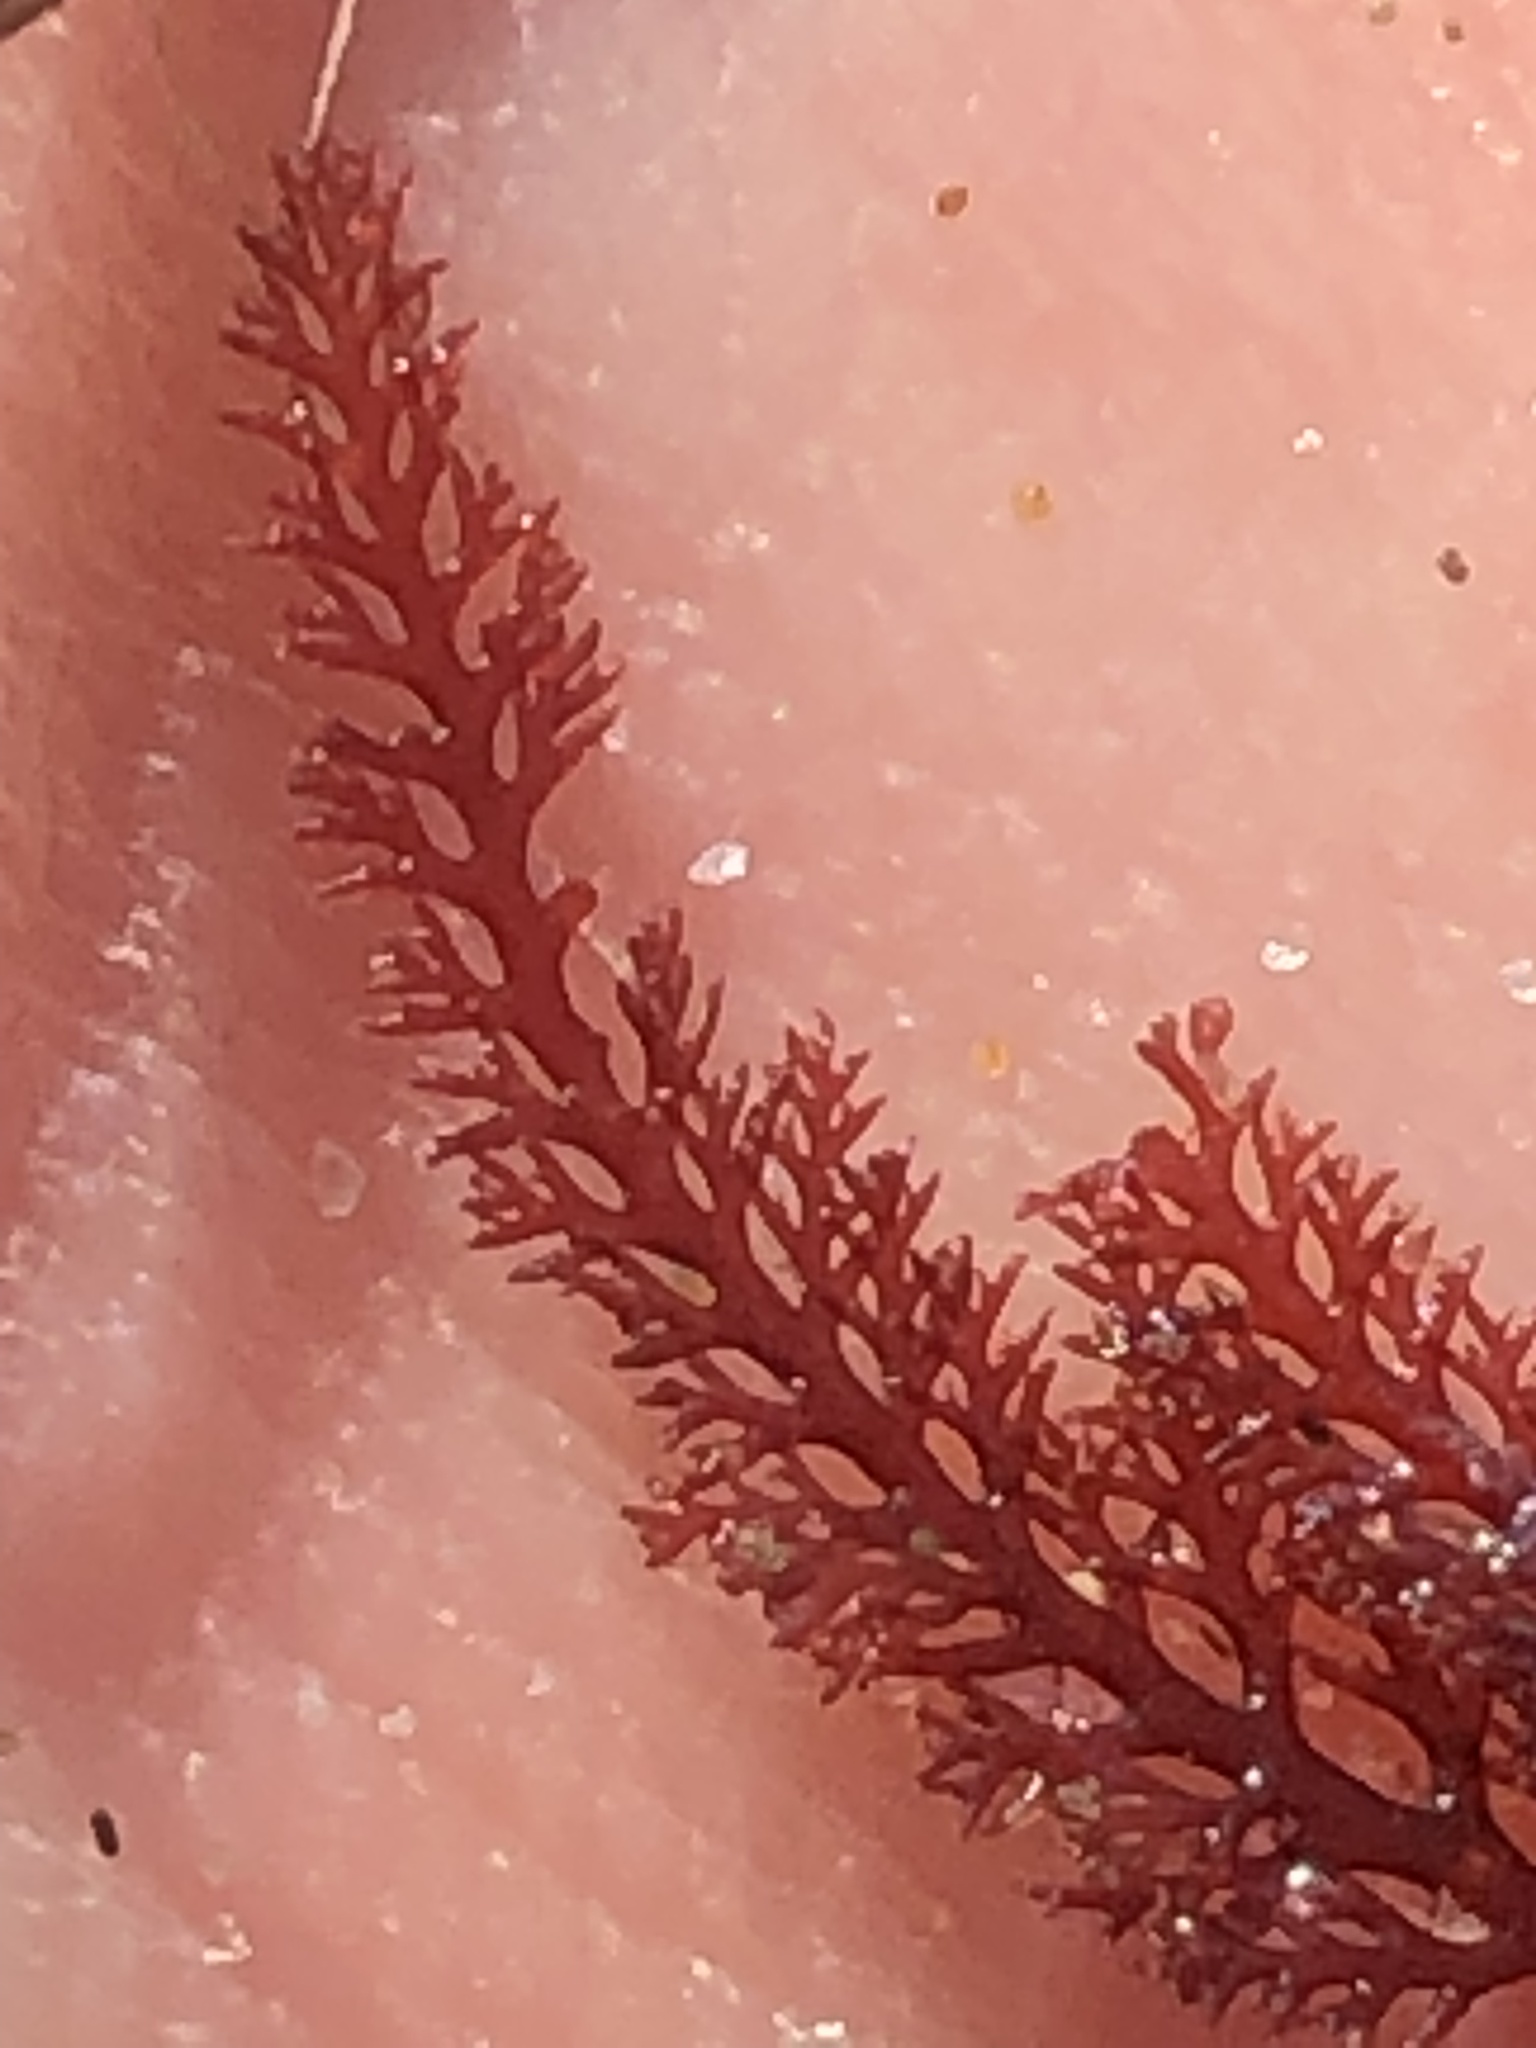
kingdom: Plantae
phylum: Rhodophyta
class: Florideophyceae
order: Ceramiales
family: Ceramiaceae
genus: Microcladia
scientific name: Microcladia coulteri
